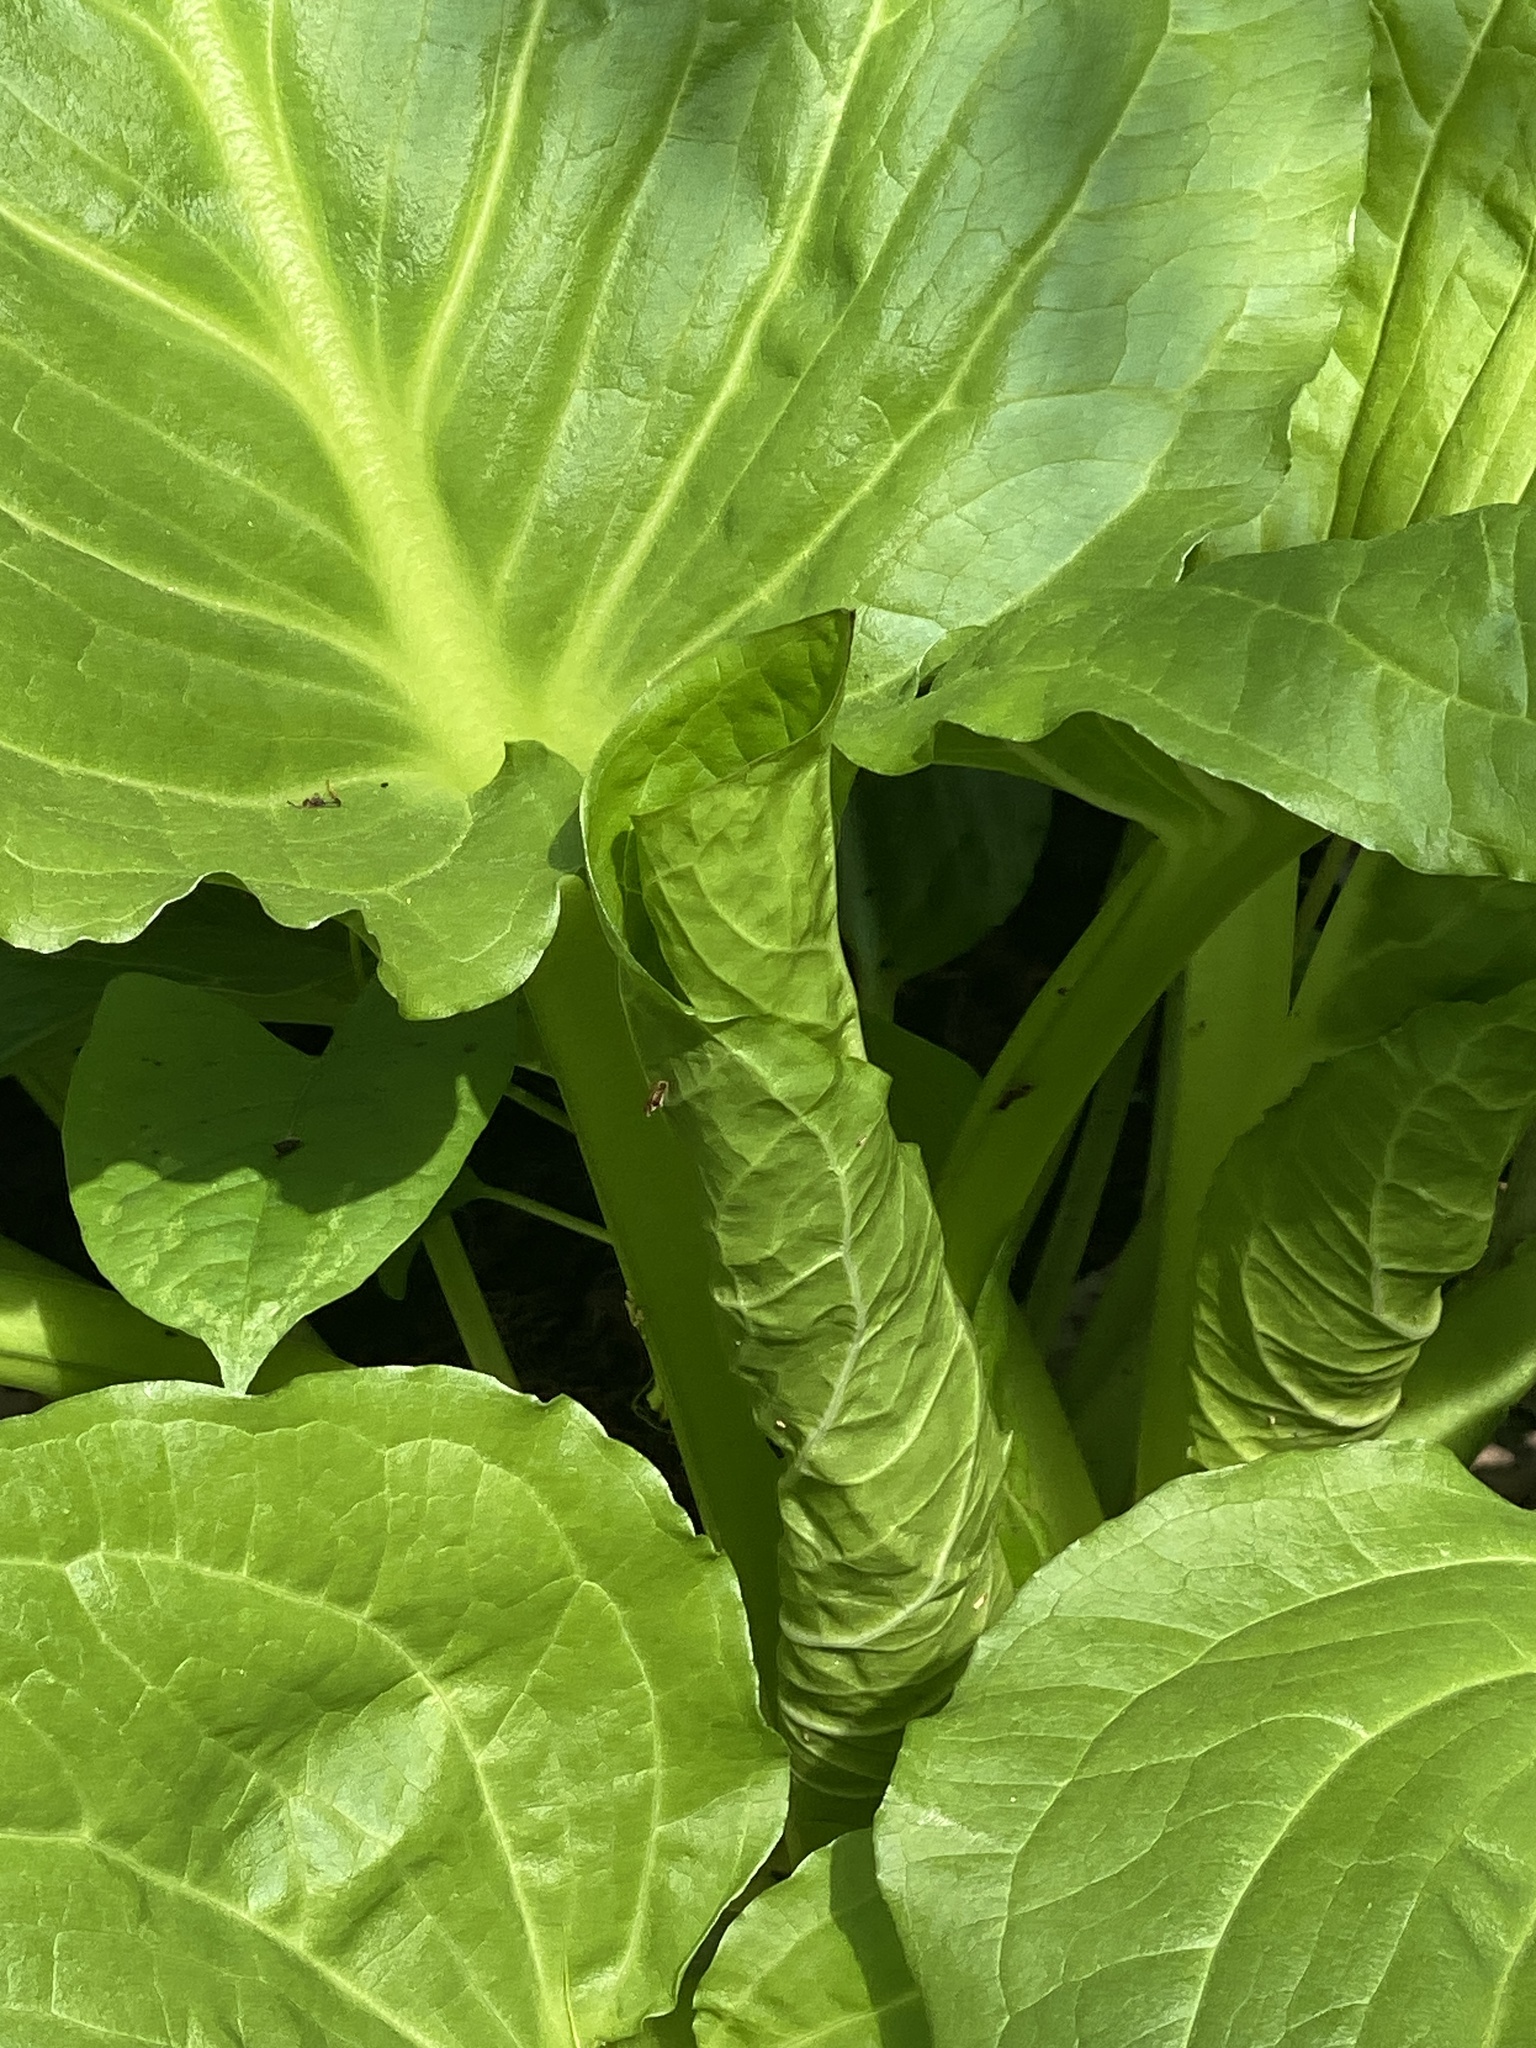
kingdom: Plantae
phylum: Tracheophyta
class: Liliopsida
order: Alismatales
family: Araceae
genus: Symplocarpus
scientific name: Symplocarpus foetidus
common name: Eastern skunk cabbage
